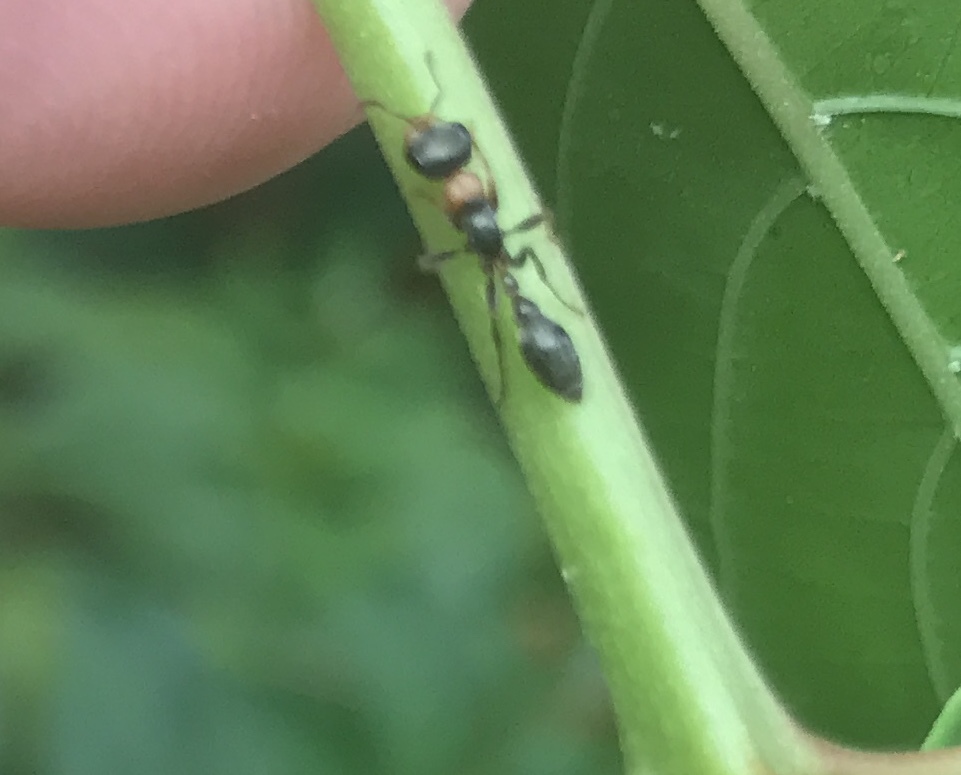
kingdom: Animalia
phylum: Arthropoda
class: Insecta
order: Hymenoptera
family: Formicidae
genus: Pseudomyrmex
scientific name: Pseudomyrmex gracilis
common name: Graceful twig ant
